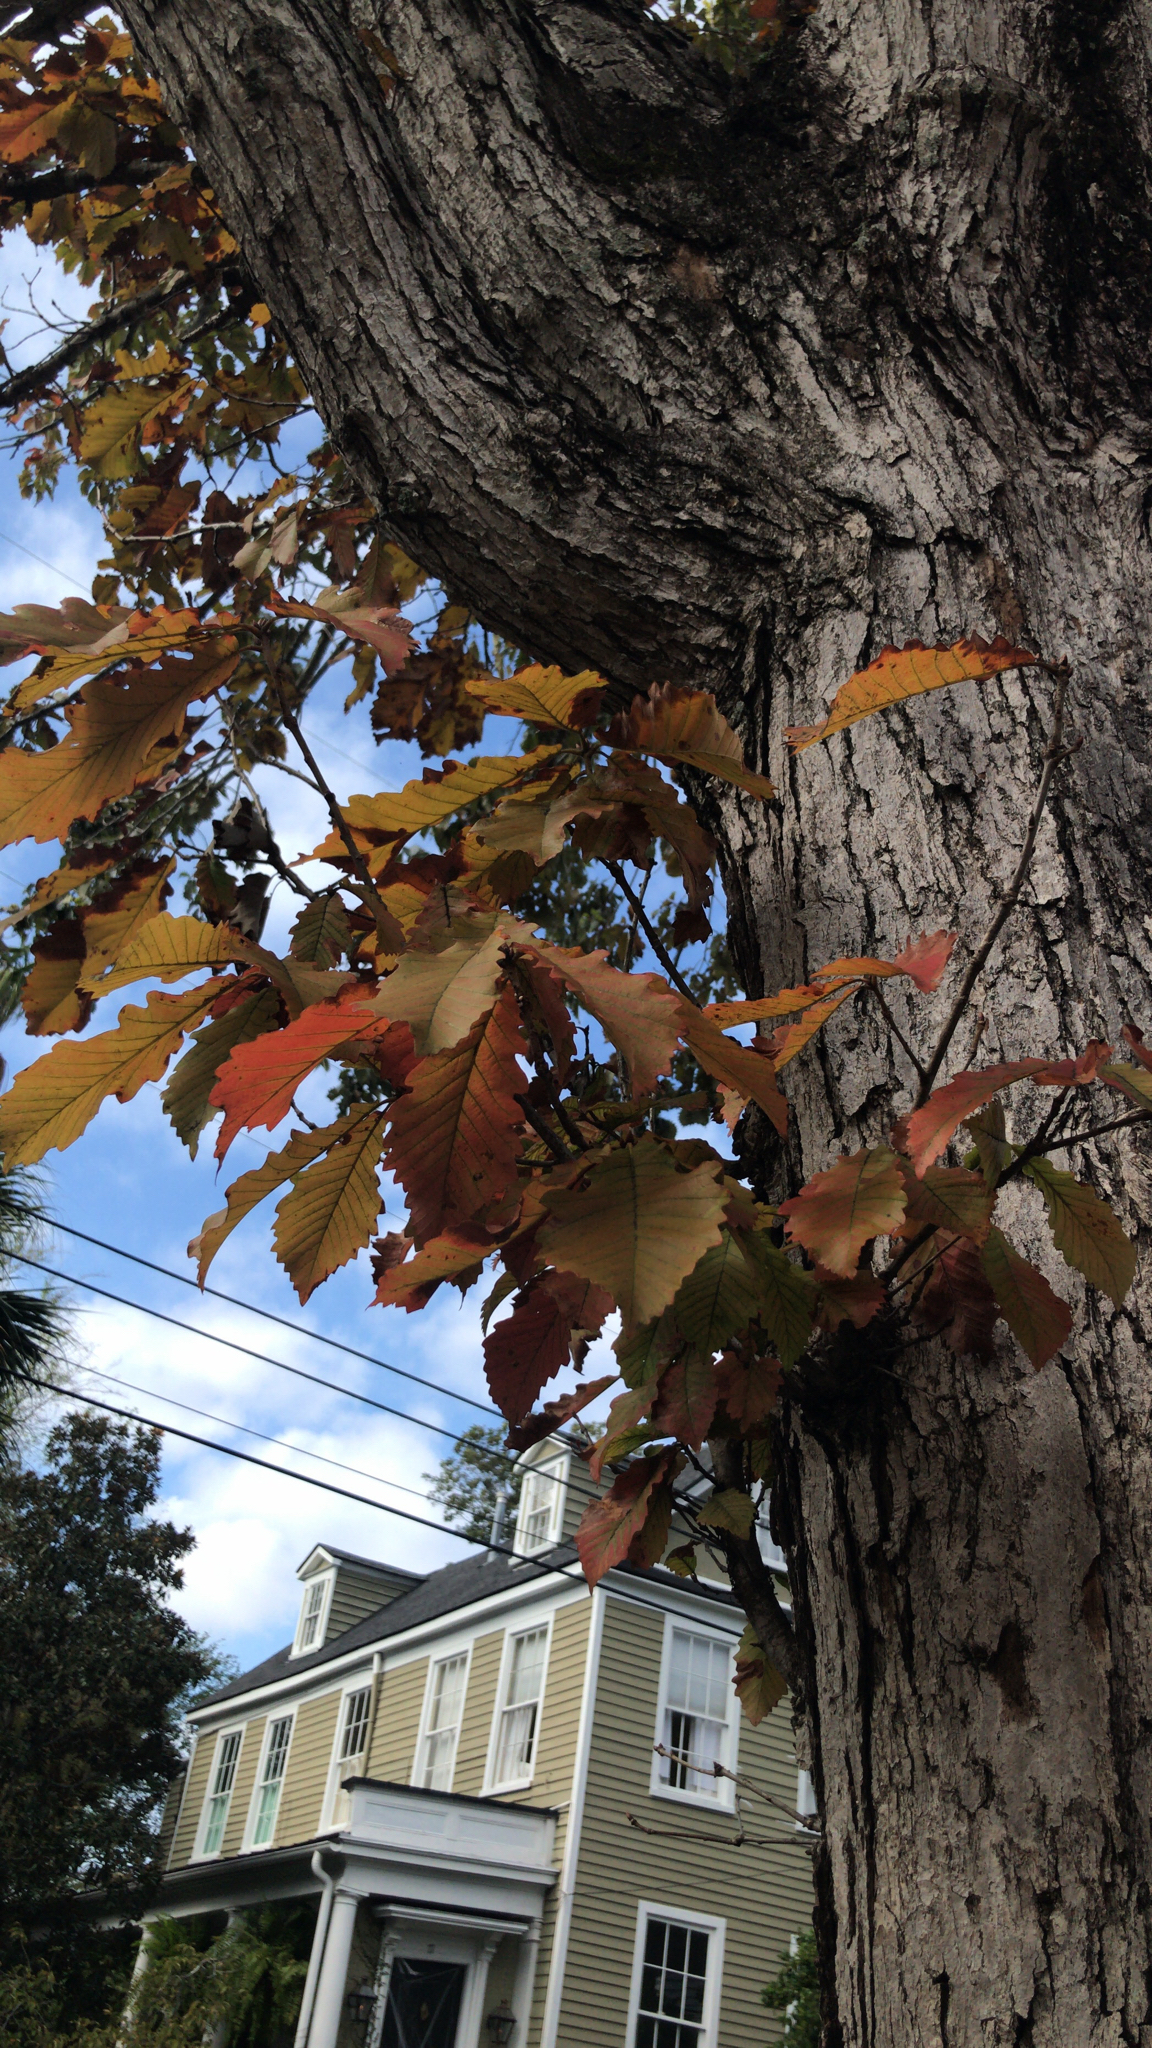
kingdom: Plantae
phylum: Tracheophyta
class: Magnoliopsida
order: Fagales
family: Fagaceae
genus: Quercus
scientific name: Quercus michauxii
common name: Swamp chestnut oak
